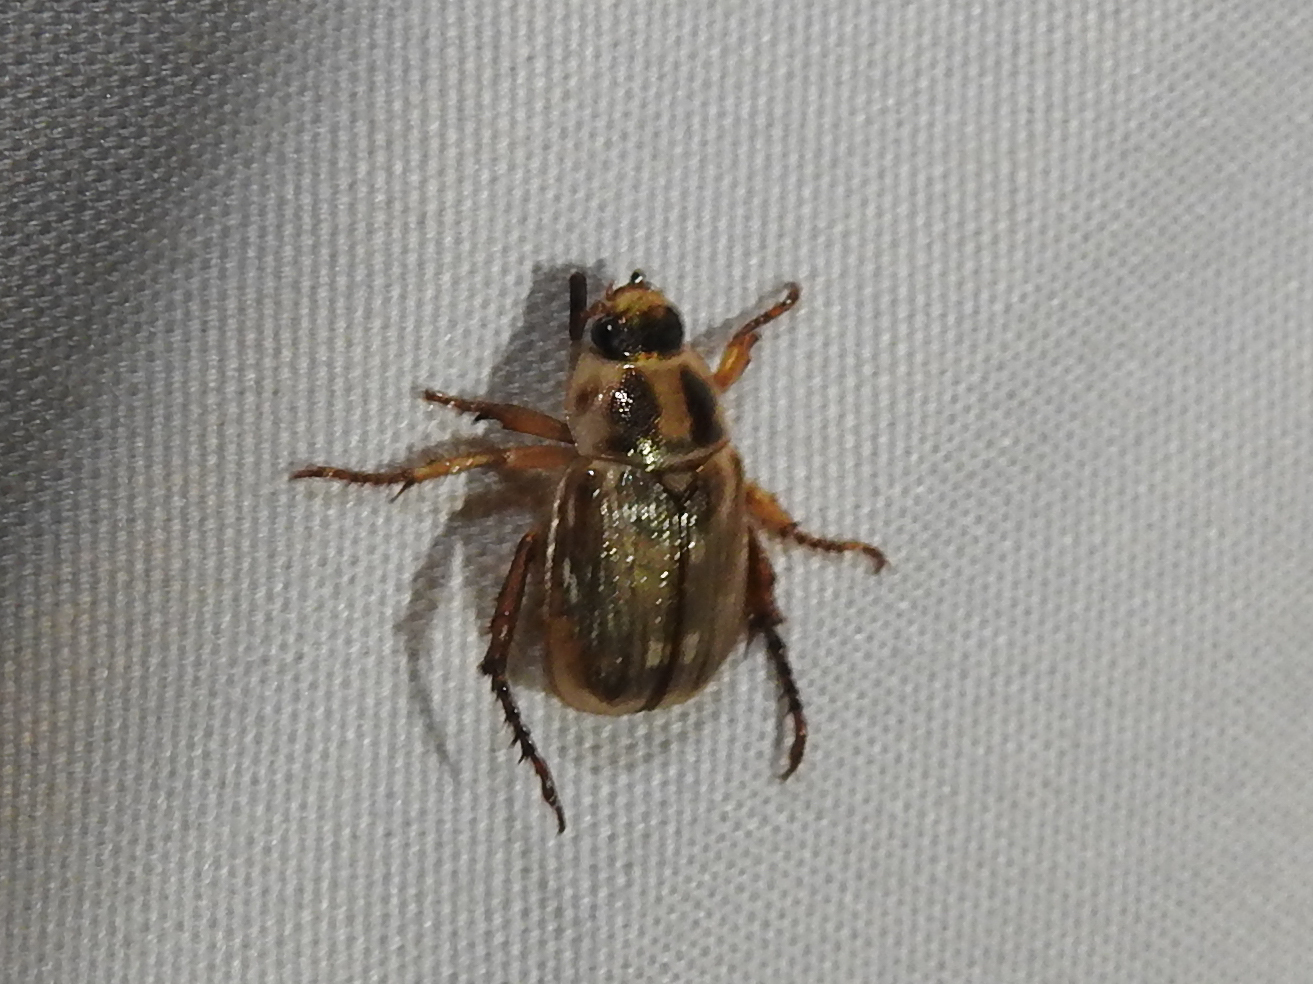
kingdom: Animalia
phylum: Arthropoda
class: Insecta
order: Coleoptera
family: Scarabaeidae
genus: Exomala
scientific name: Exomala orientalis
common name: Oriental beetle
